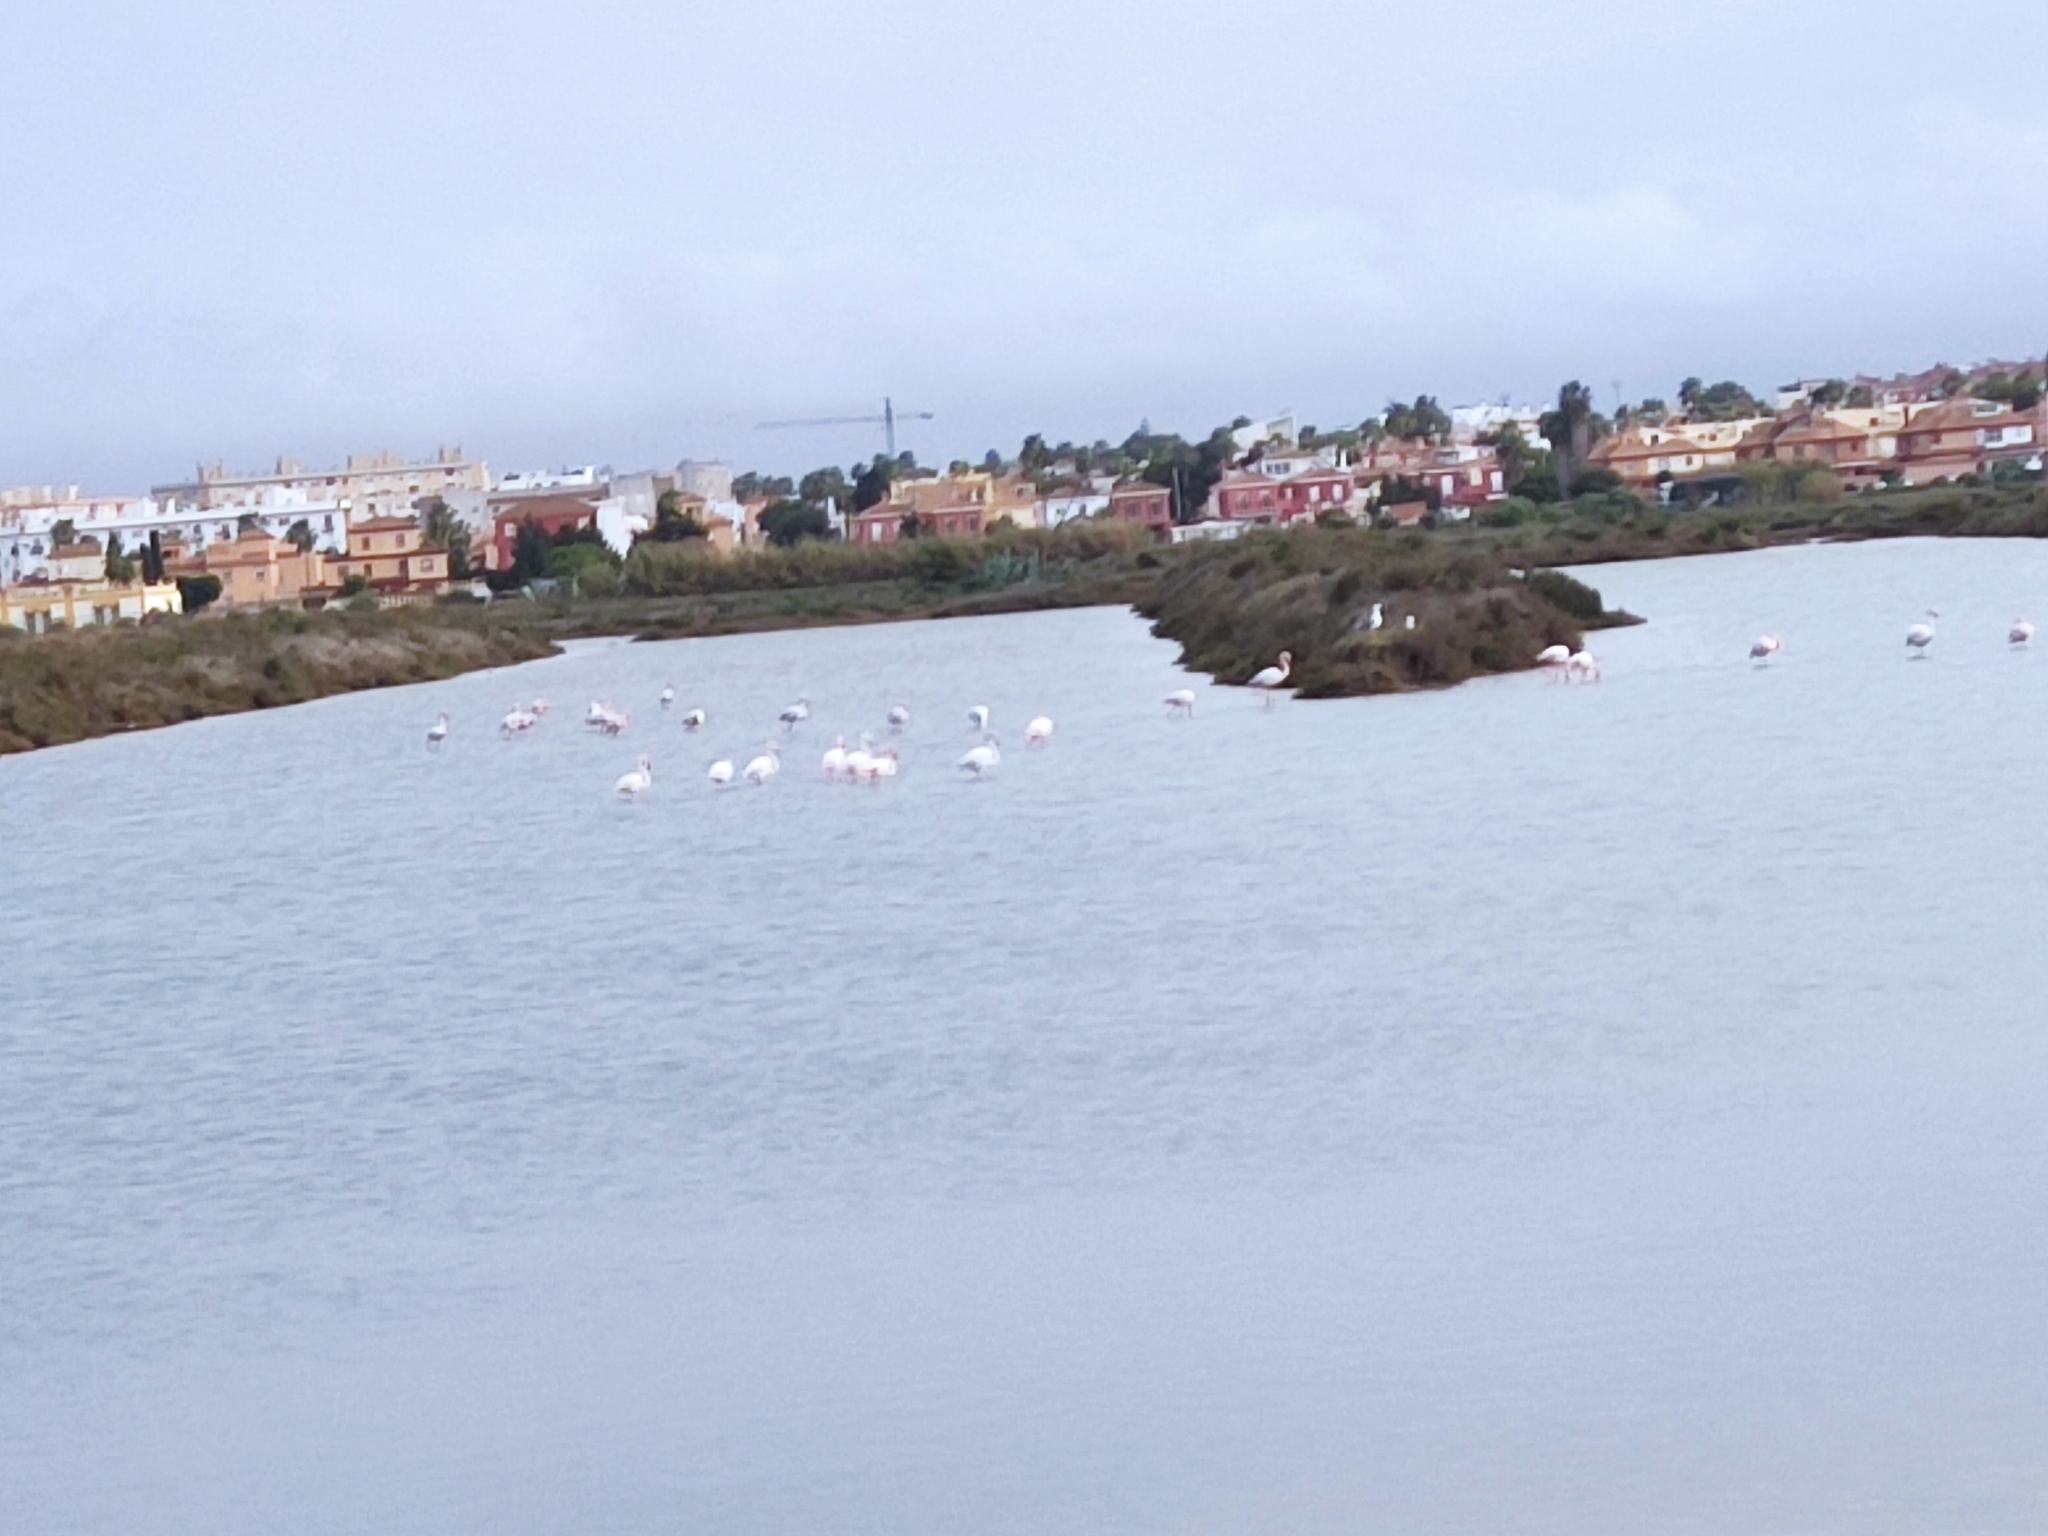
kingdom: Animalia
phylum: Chordata
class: Aves
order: Phoenicopteriformes
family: Phoenicopteridae
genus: Phoenicopterus
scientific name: Phoenicopterus roseus
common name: Greater flamingo
